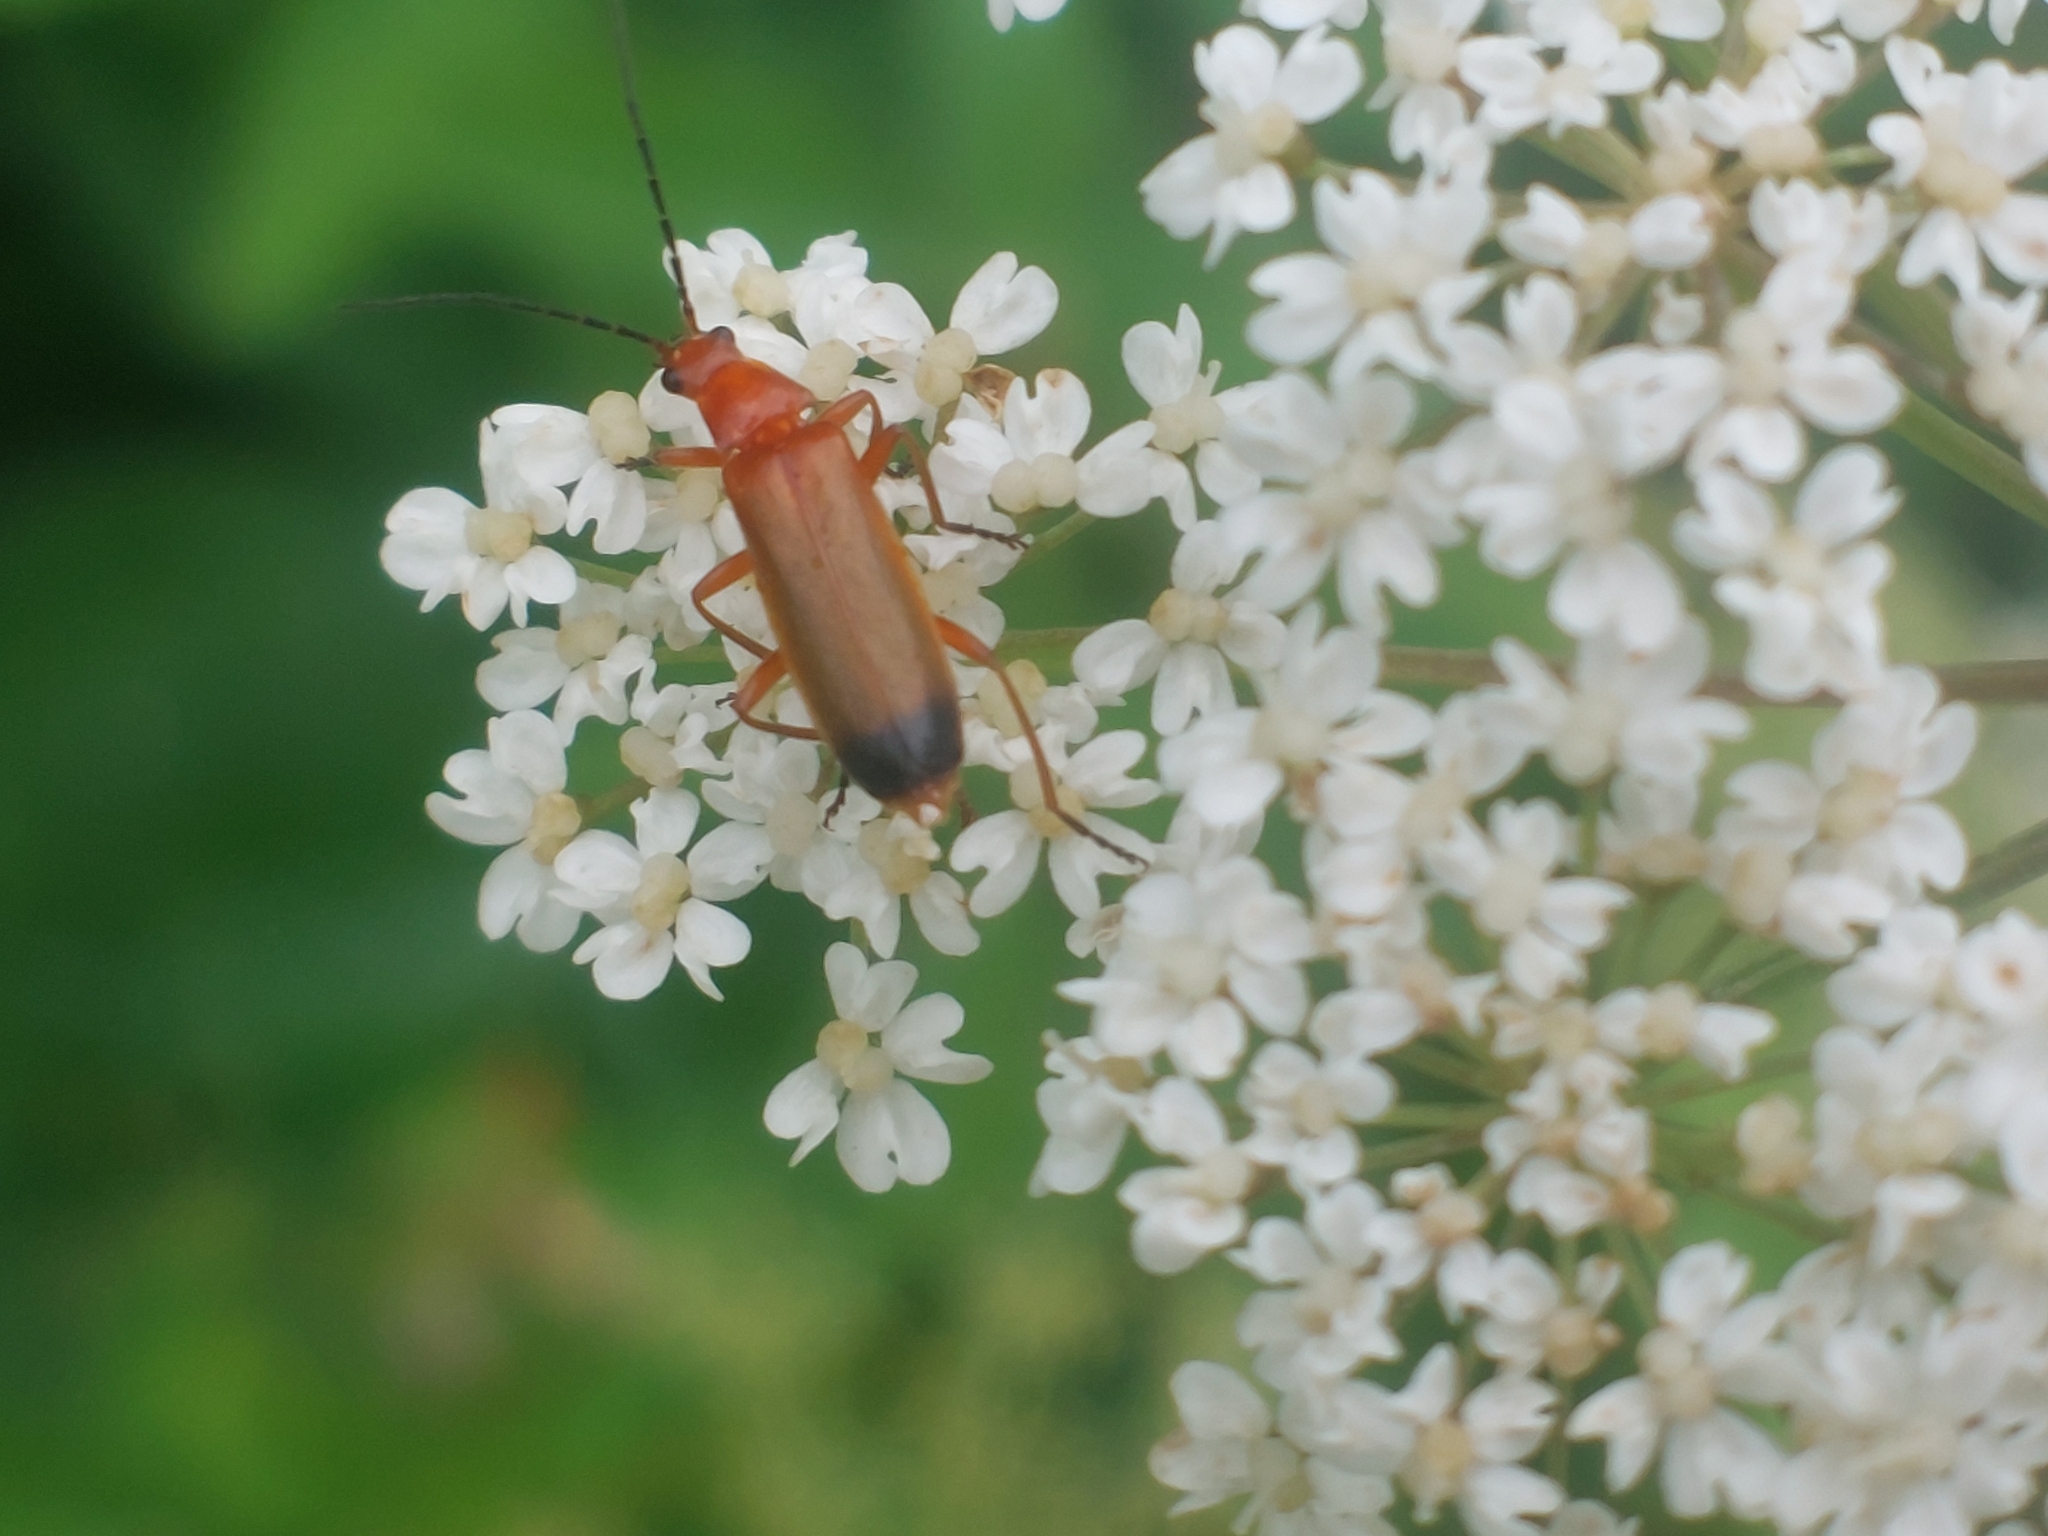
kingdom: Animalia
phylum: Arthropoda
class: Insecta
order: Coleoptera
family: Cantharidae
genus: Rhagonycha
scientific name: Rhagonycha fulva
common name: Common red soldier beetle
